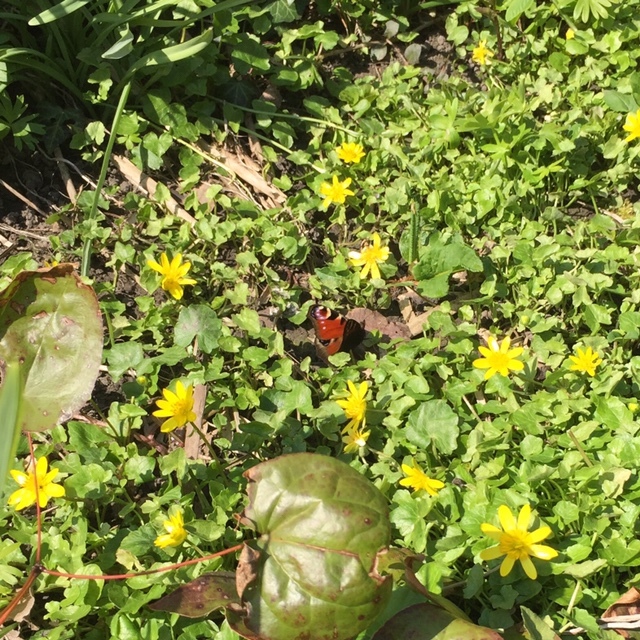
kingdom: Animalia
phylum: Arthropoda
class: Insecta
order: Lepidoptera
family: Nymphalidae
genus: Aglais
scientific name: Aglais io
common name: Peacock
